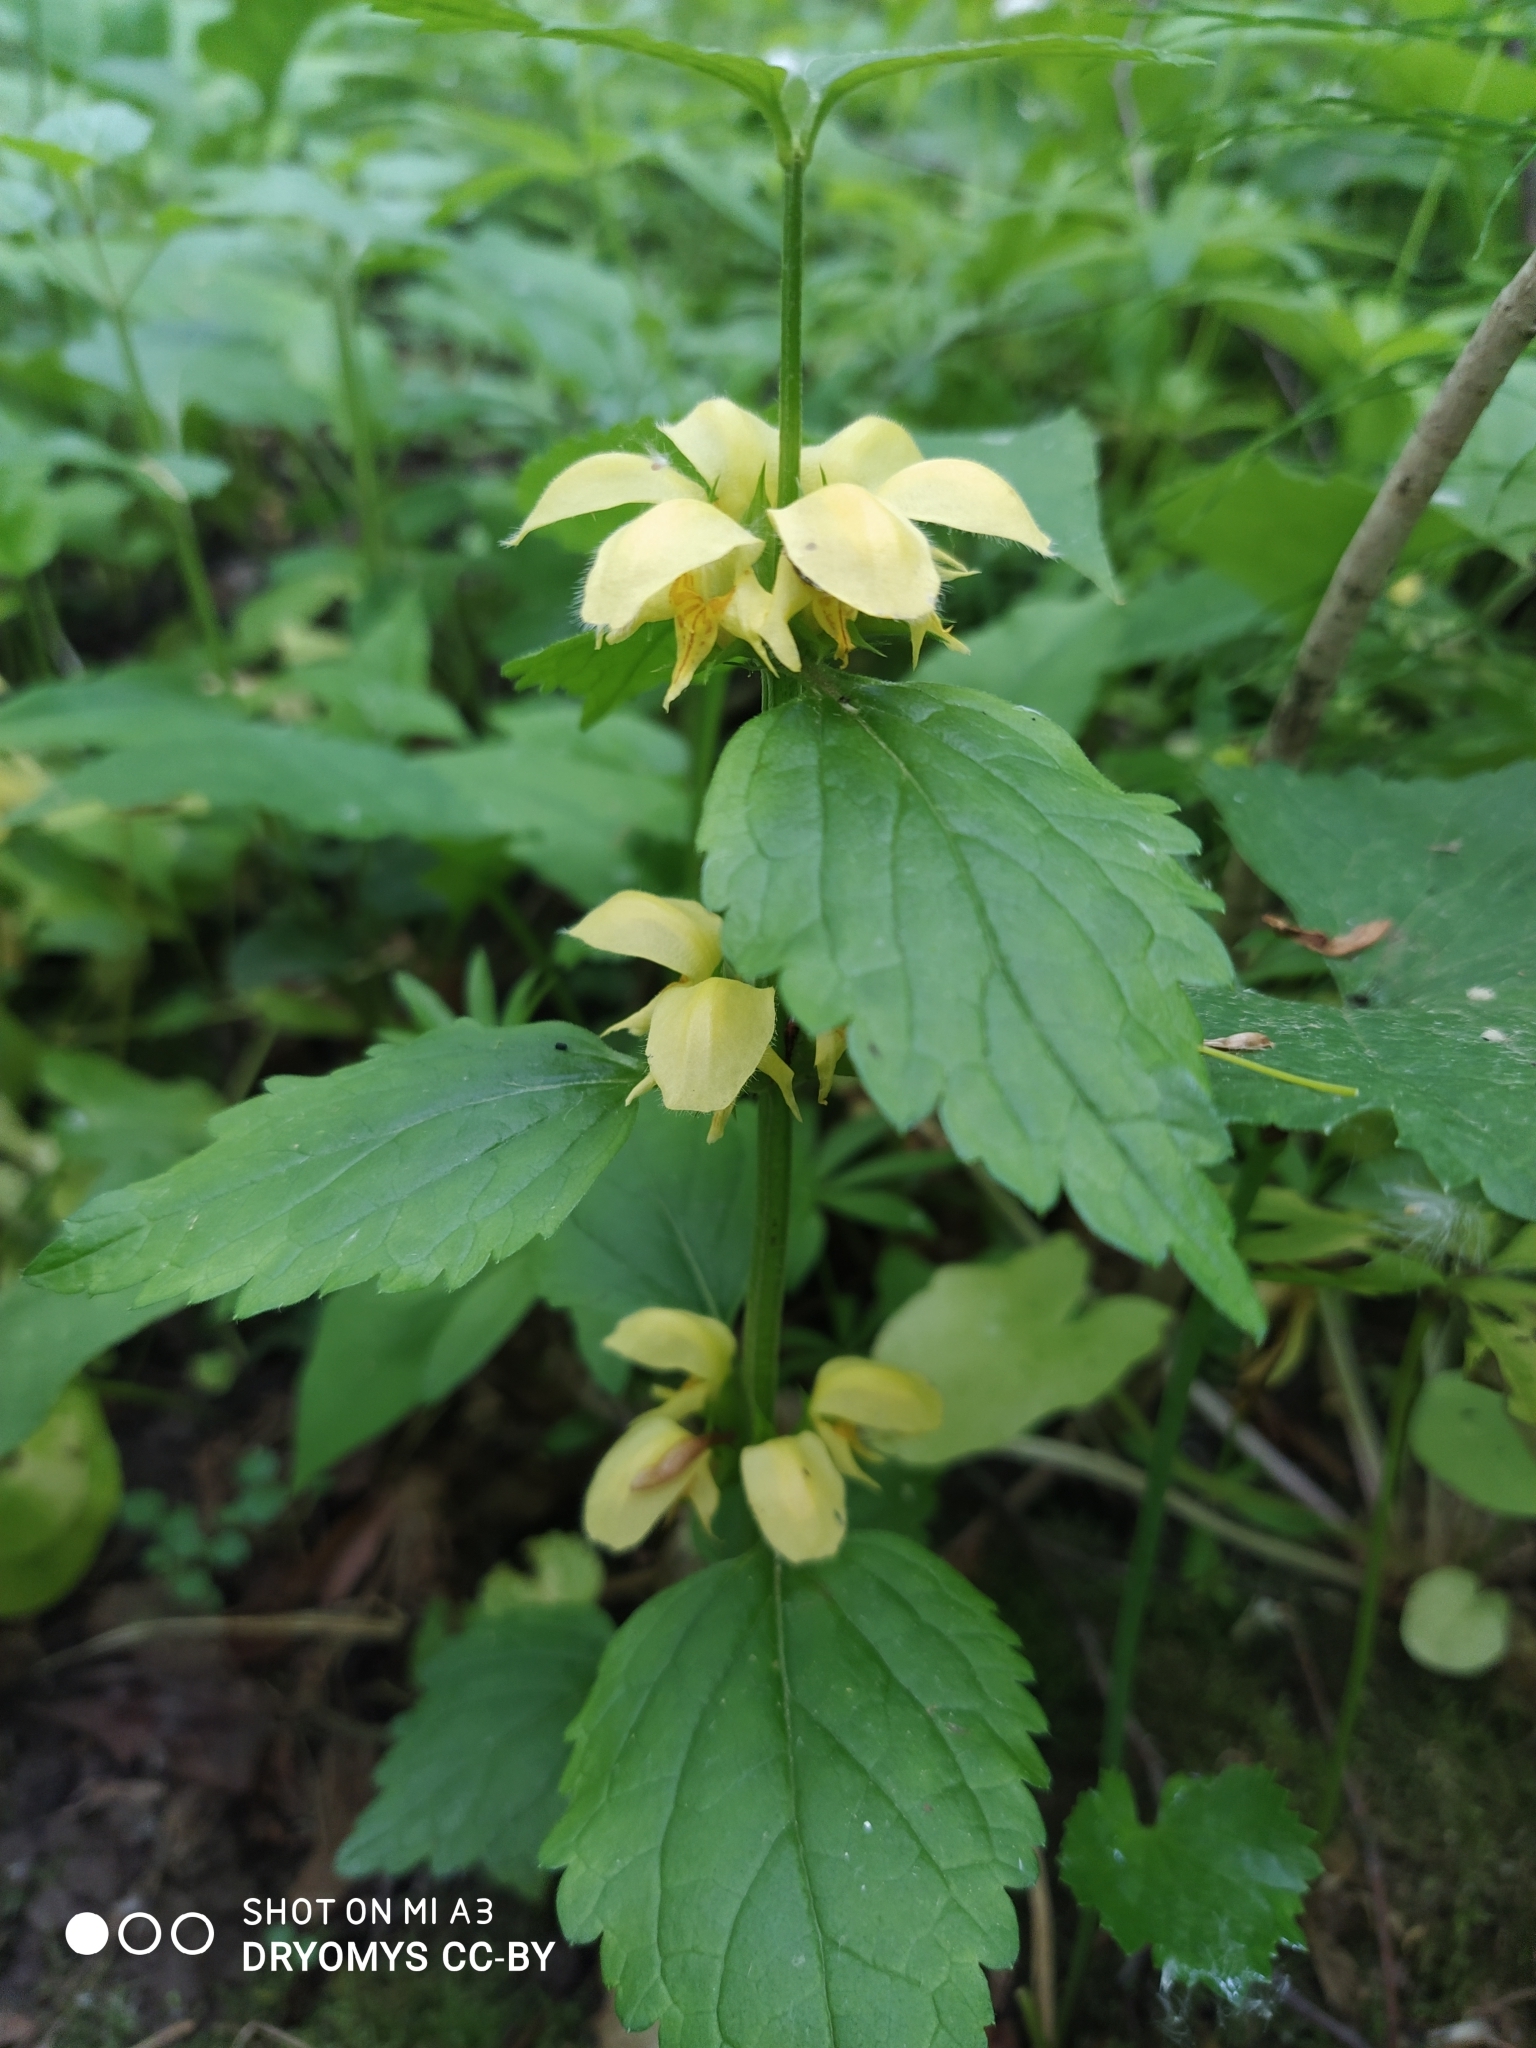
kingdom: Plantae
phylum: Tracheophyta
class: Magnoliopsida
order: Lamiales
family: Lamiaceae
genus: Lamium
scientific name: Lamium galeobdolon
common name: Yellow archangel
